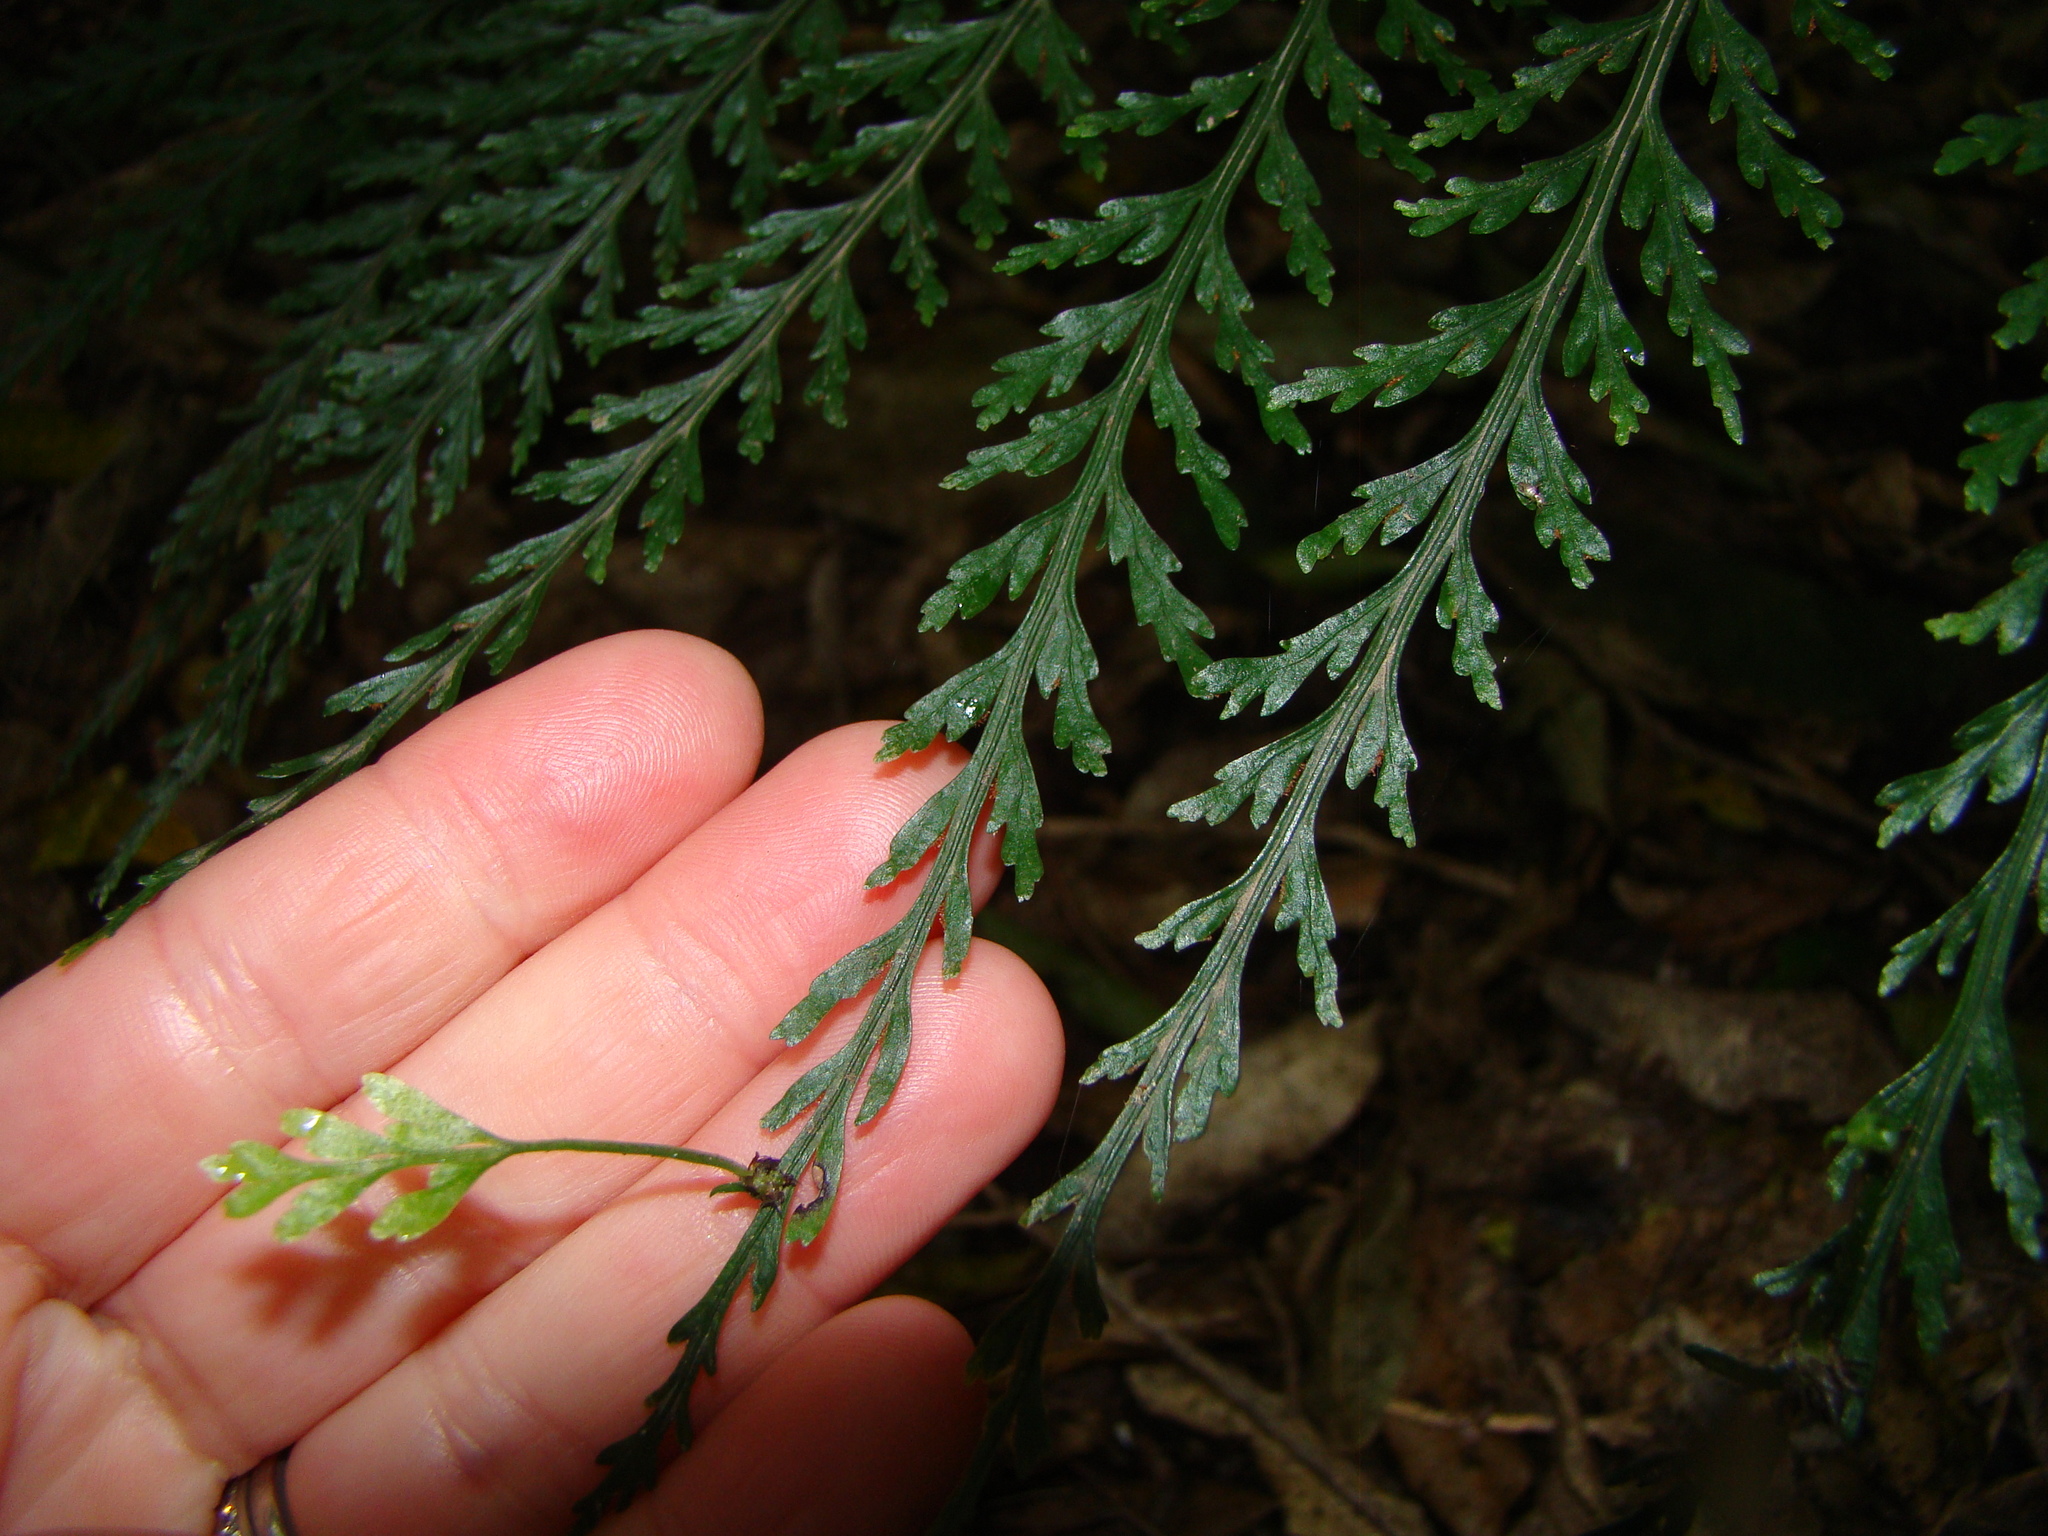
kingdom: Plantae
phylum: Tracheophyta
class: Polypodiopsida
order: Polypodiales
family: Aspleniaceae
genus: Asplenium
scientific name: Asplenium
